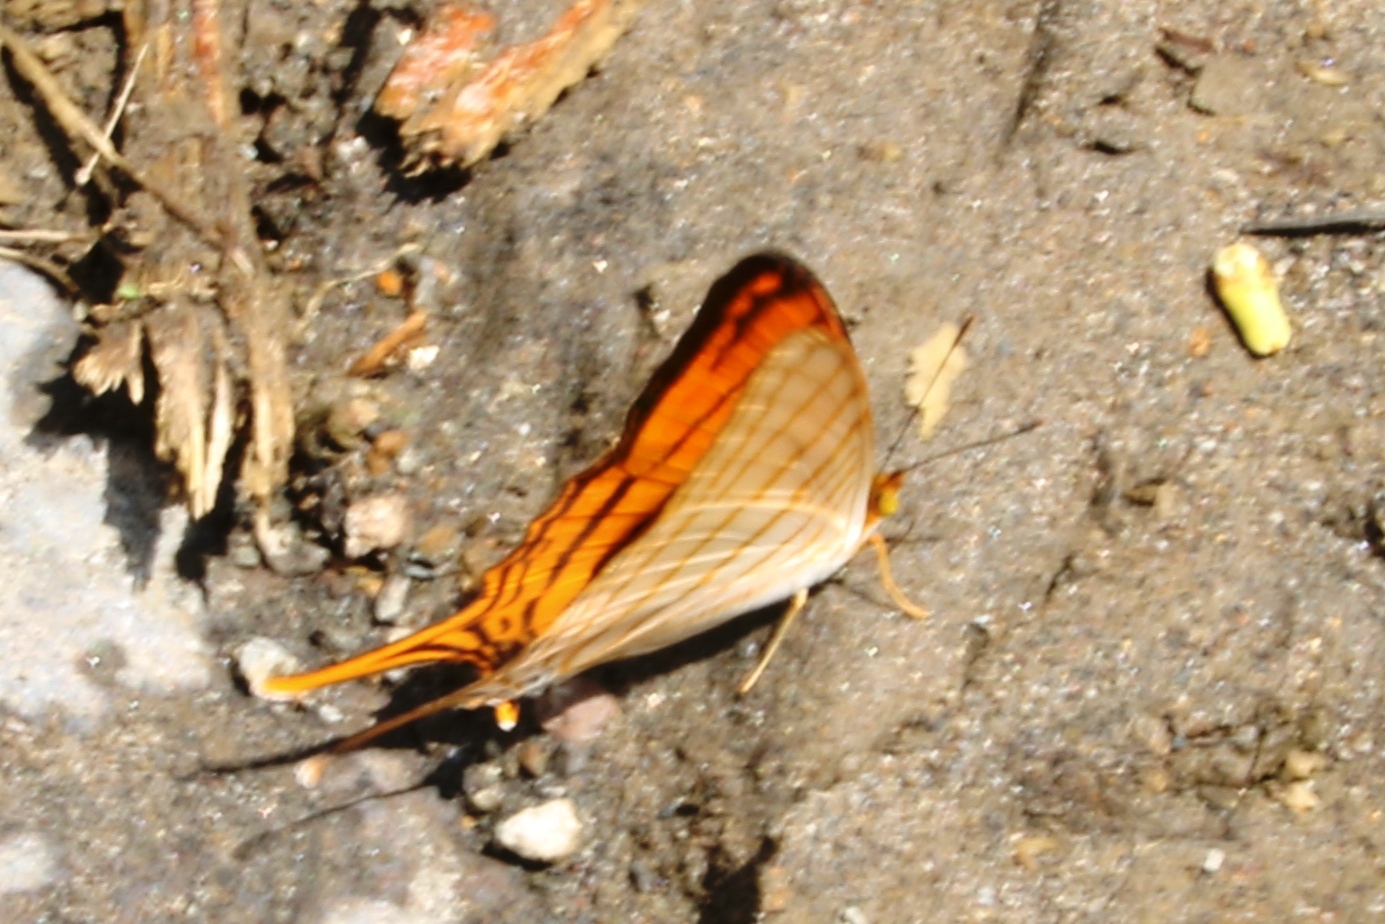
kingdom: Animalia
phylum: Arthropoda
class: Insecta
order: Lepidoptera
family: Nymphalidae
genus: Marpesia
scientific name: Marpesia berania
